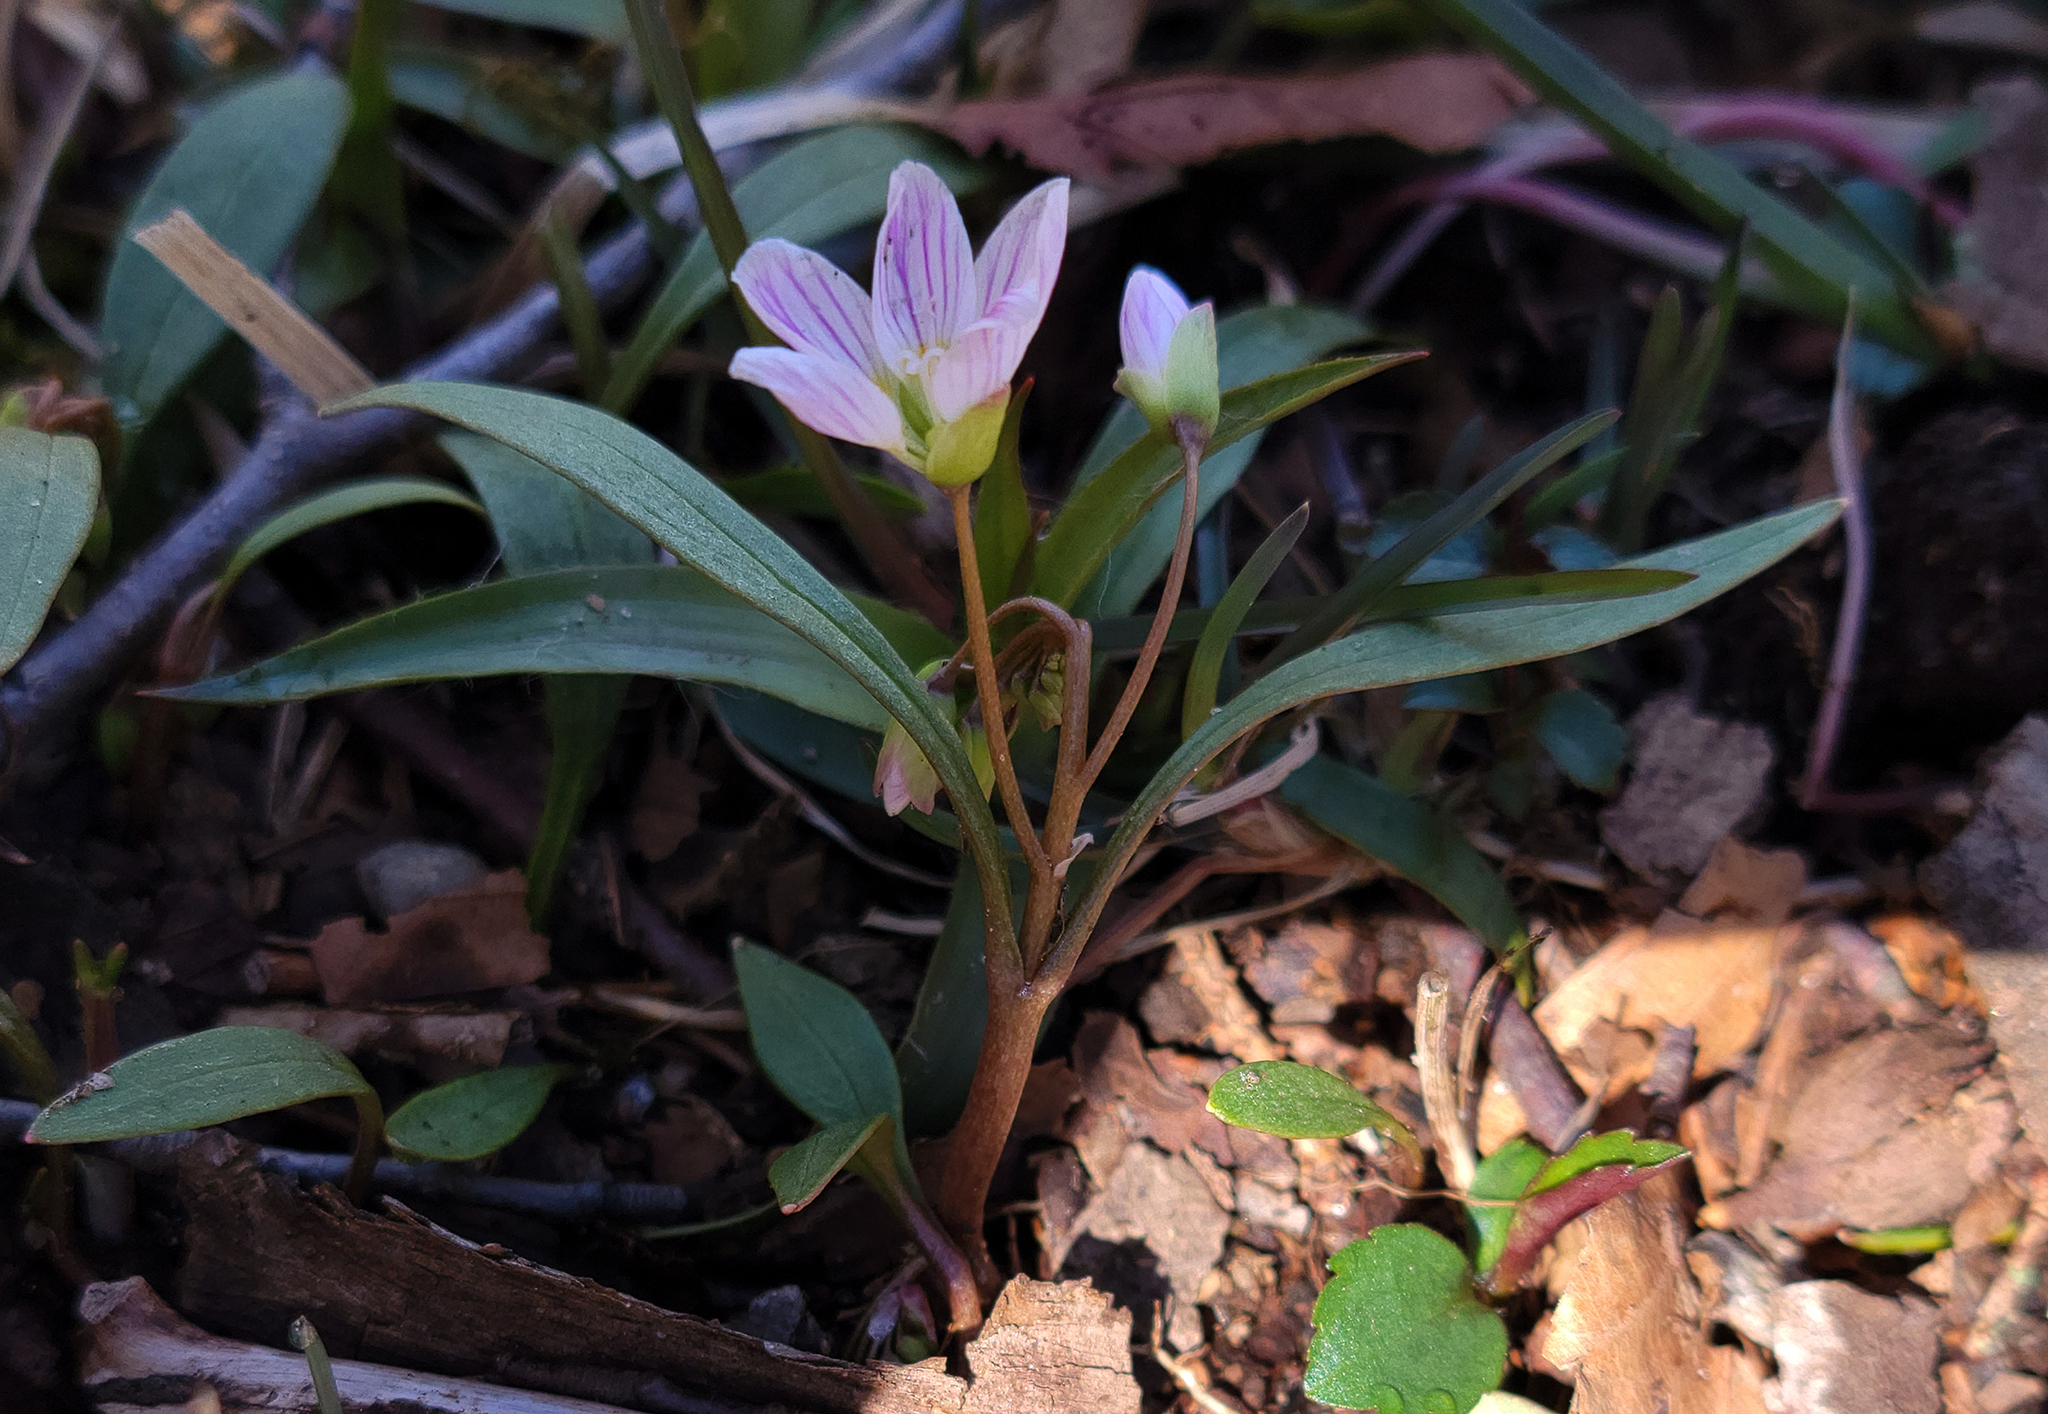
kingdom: Plantae
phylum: Tracheophyta
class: Magnoliopsida
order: Caryophyllales
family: Montiaceae
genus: Claytonia
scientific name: Claytonia caroliniana
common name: Carolina spring beauty
